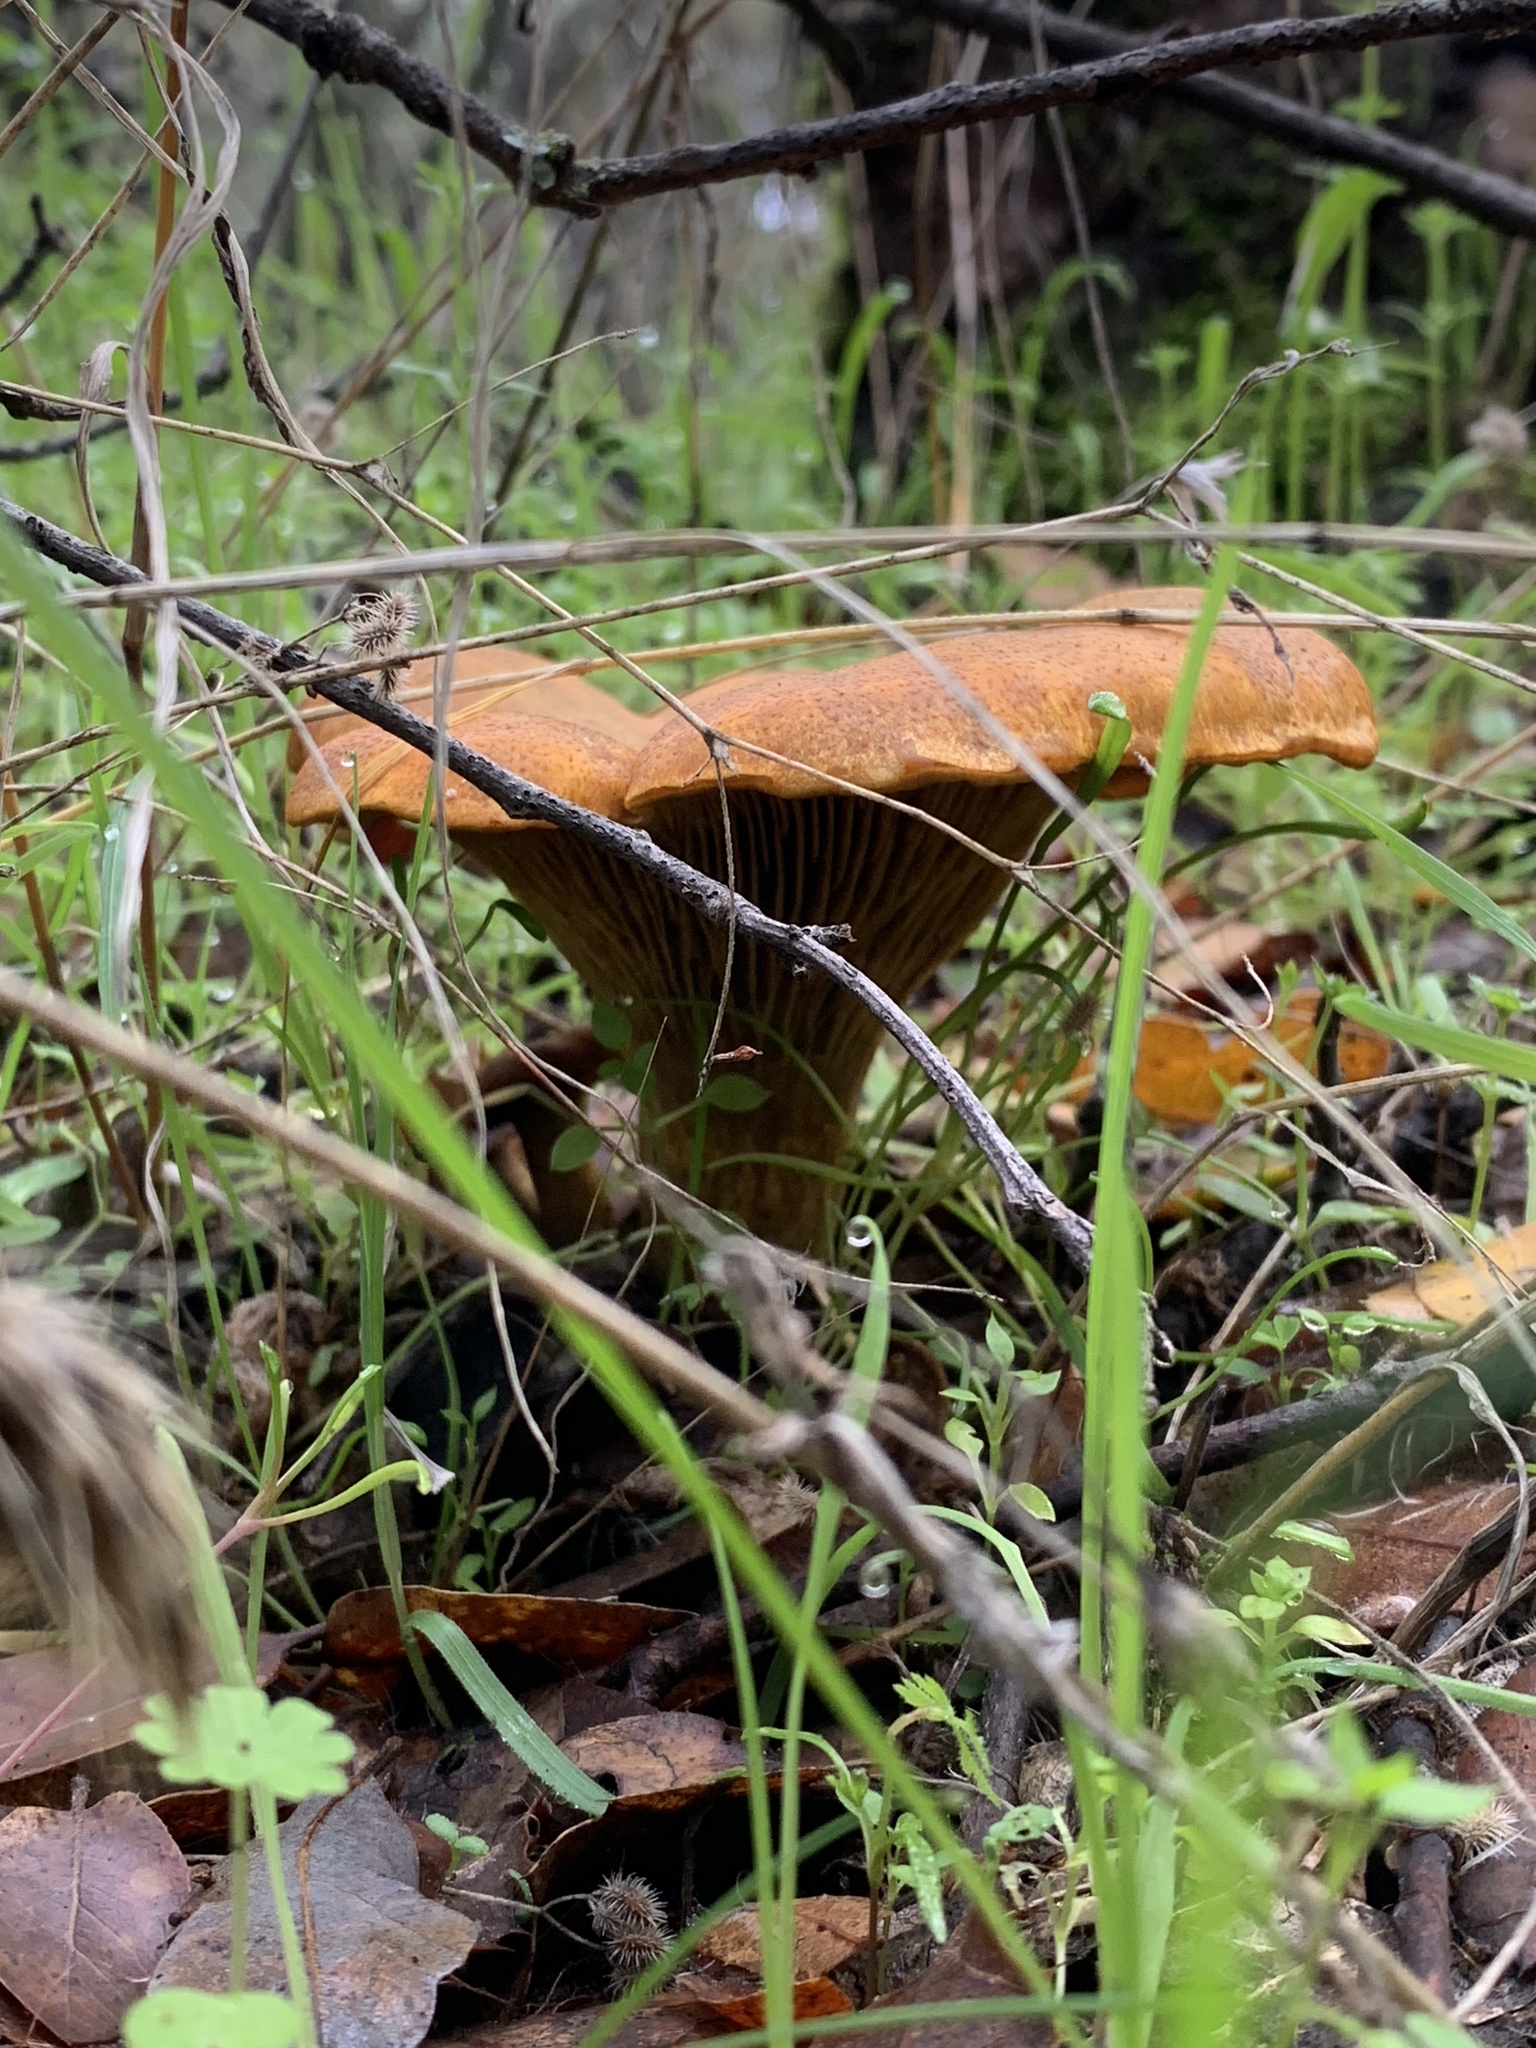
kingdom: Fungi
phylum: Basidiomycota
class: Agaricomycetes
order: Agaricales
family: Omphalotaceae
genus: Omphalotus
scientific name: Omphalotus olivascens
